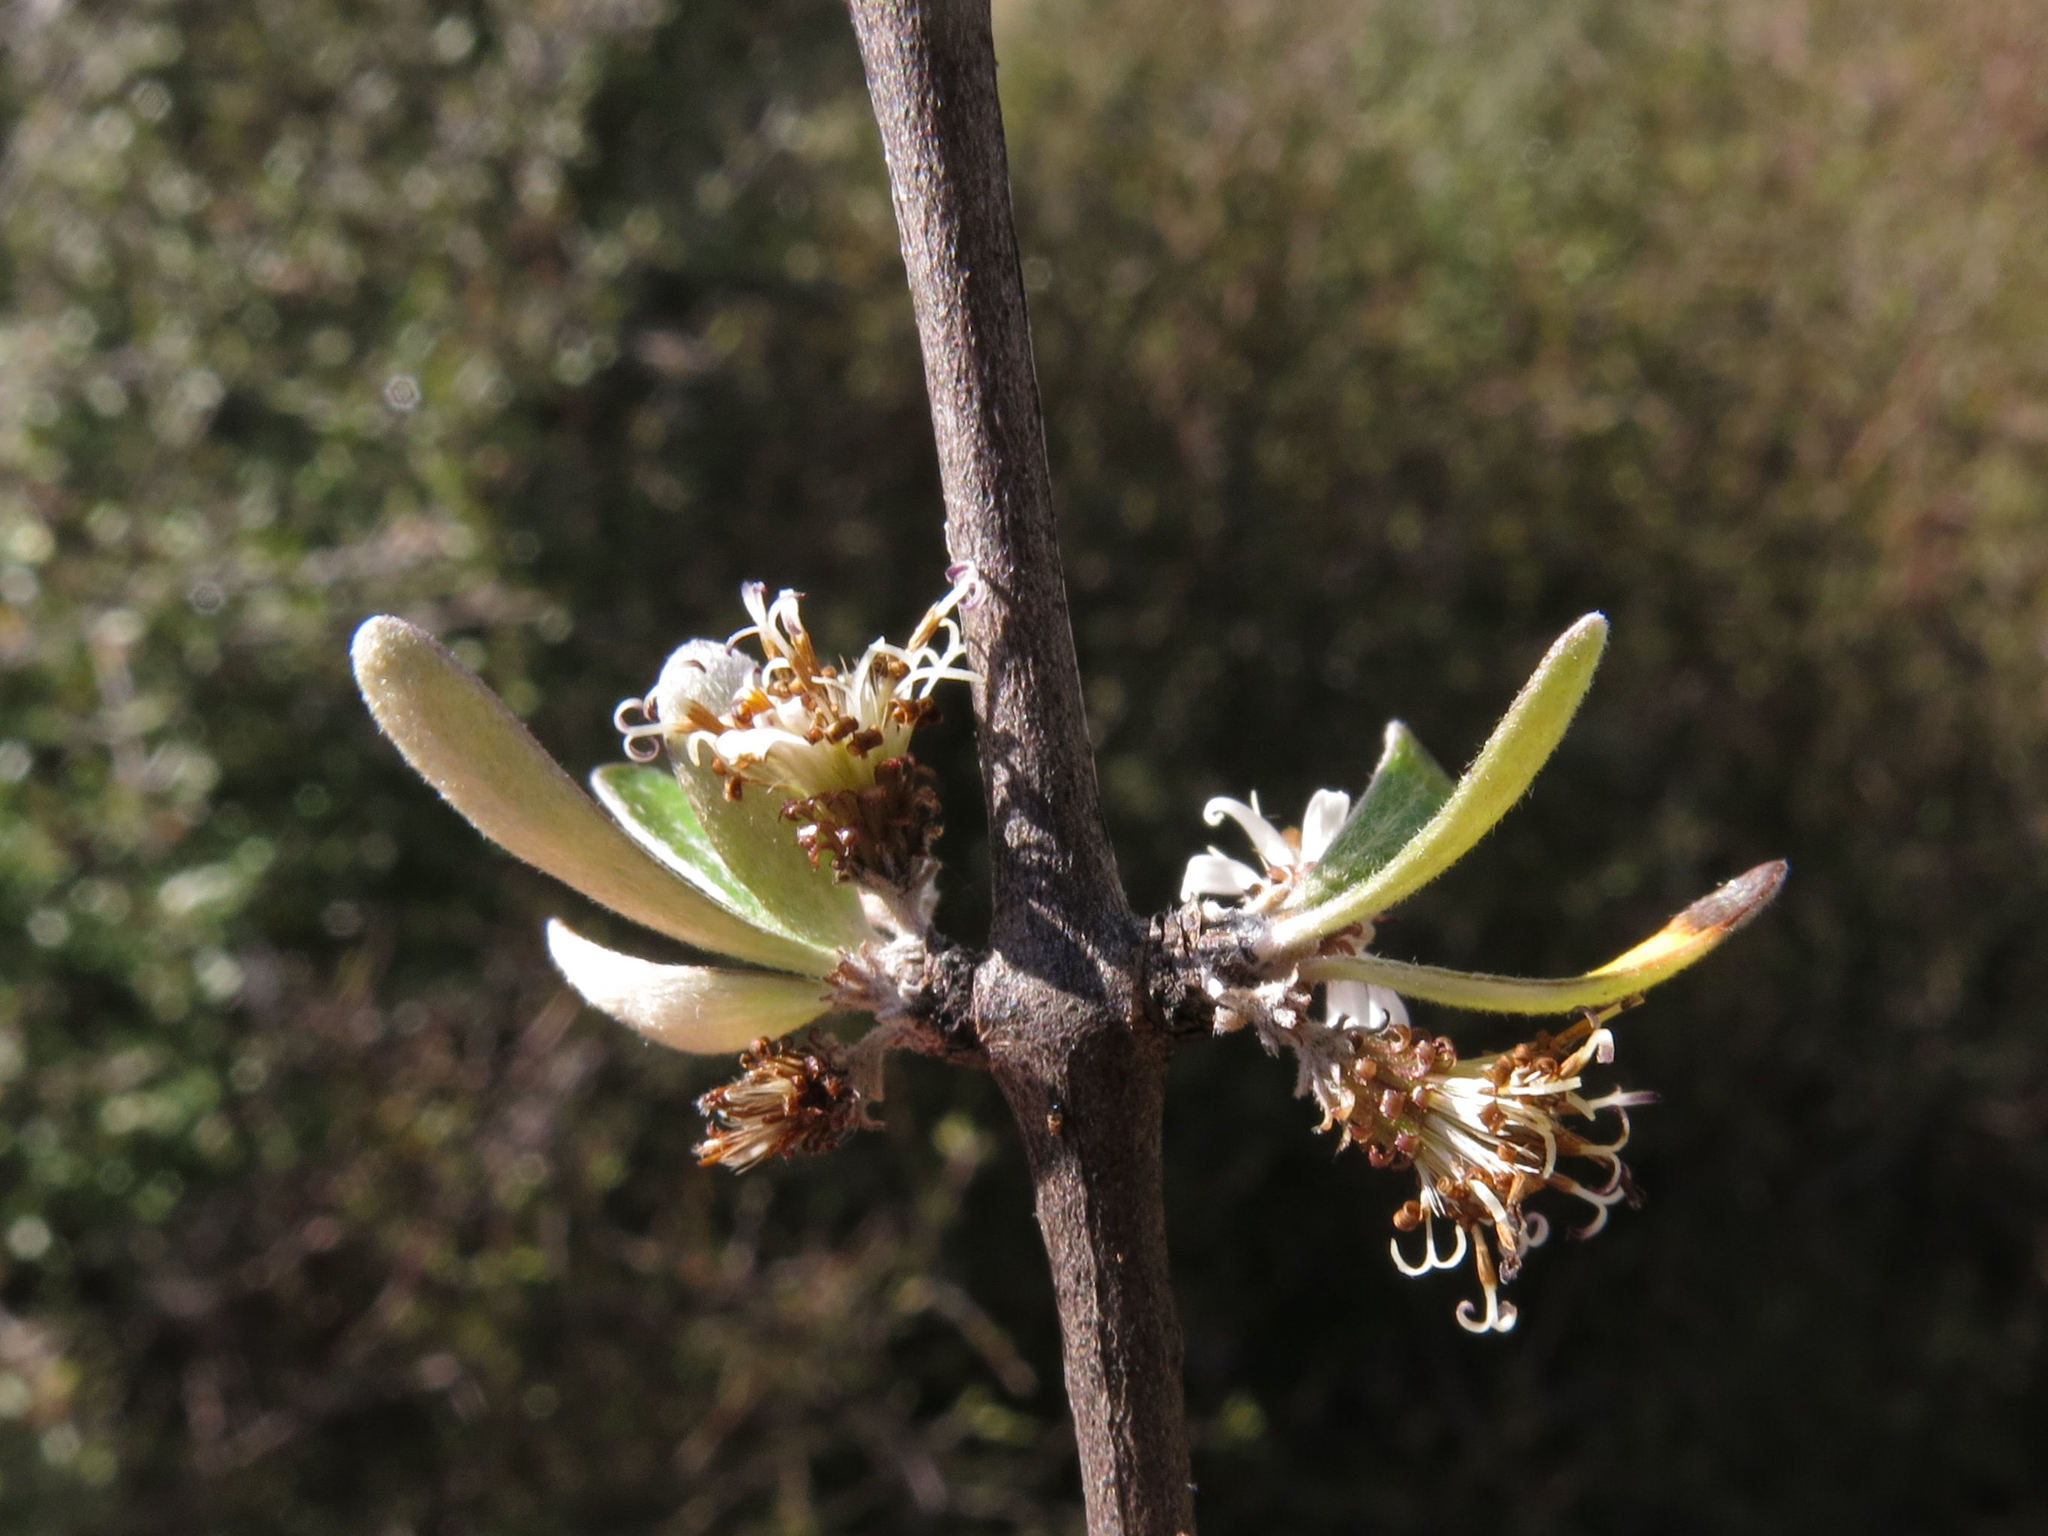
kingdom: Plantae
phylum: Tracheophyta
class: Magnoliopsida
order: Asterales
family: Asteraceae
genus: Olearia
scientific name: Olearia odorata
